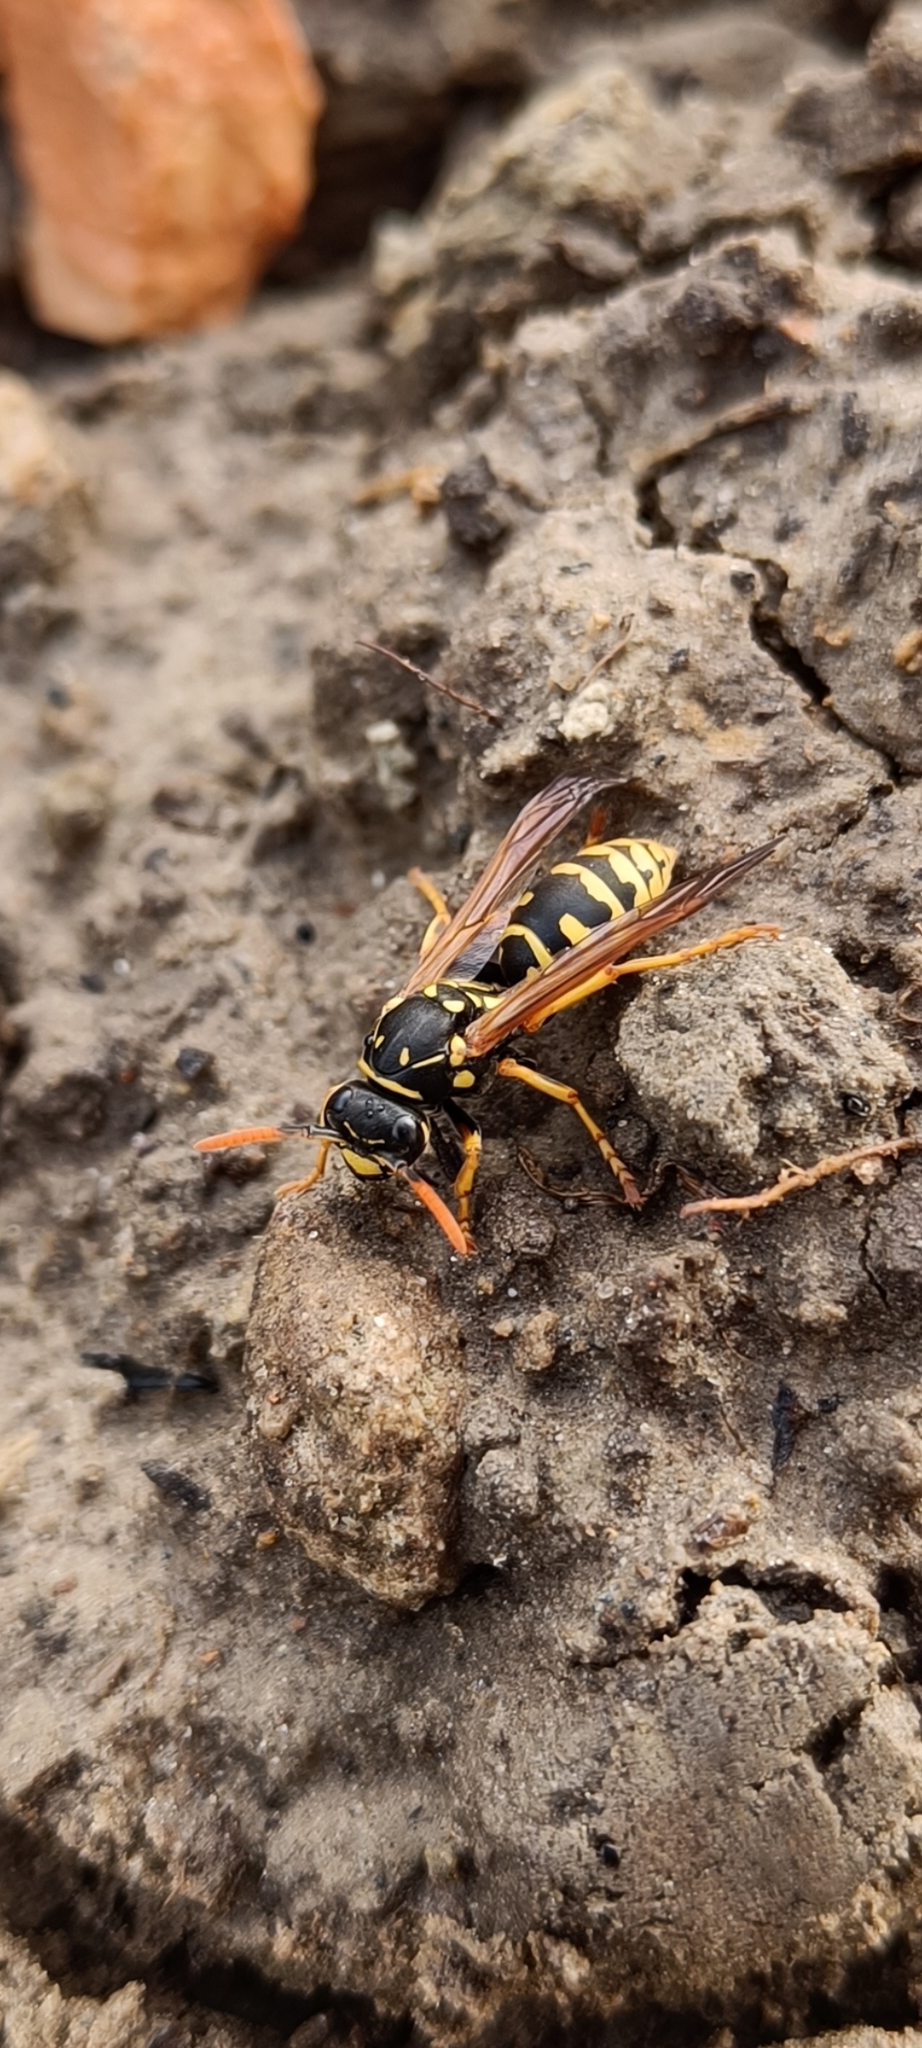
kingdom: Animalia
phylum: Arthropoda
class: Insecta
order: Hymenoptera
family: Eumenidae
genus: Polistes
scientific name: Polistes dominula
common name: Paper wasp
